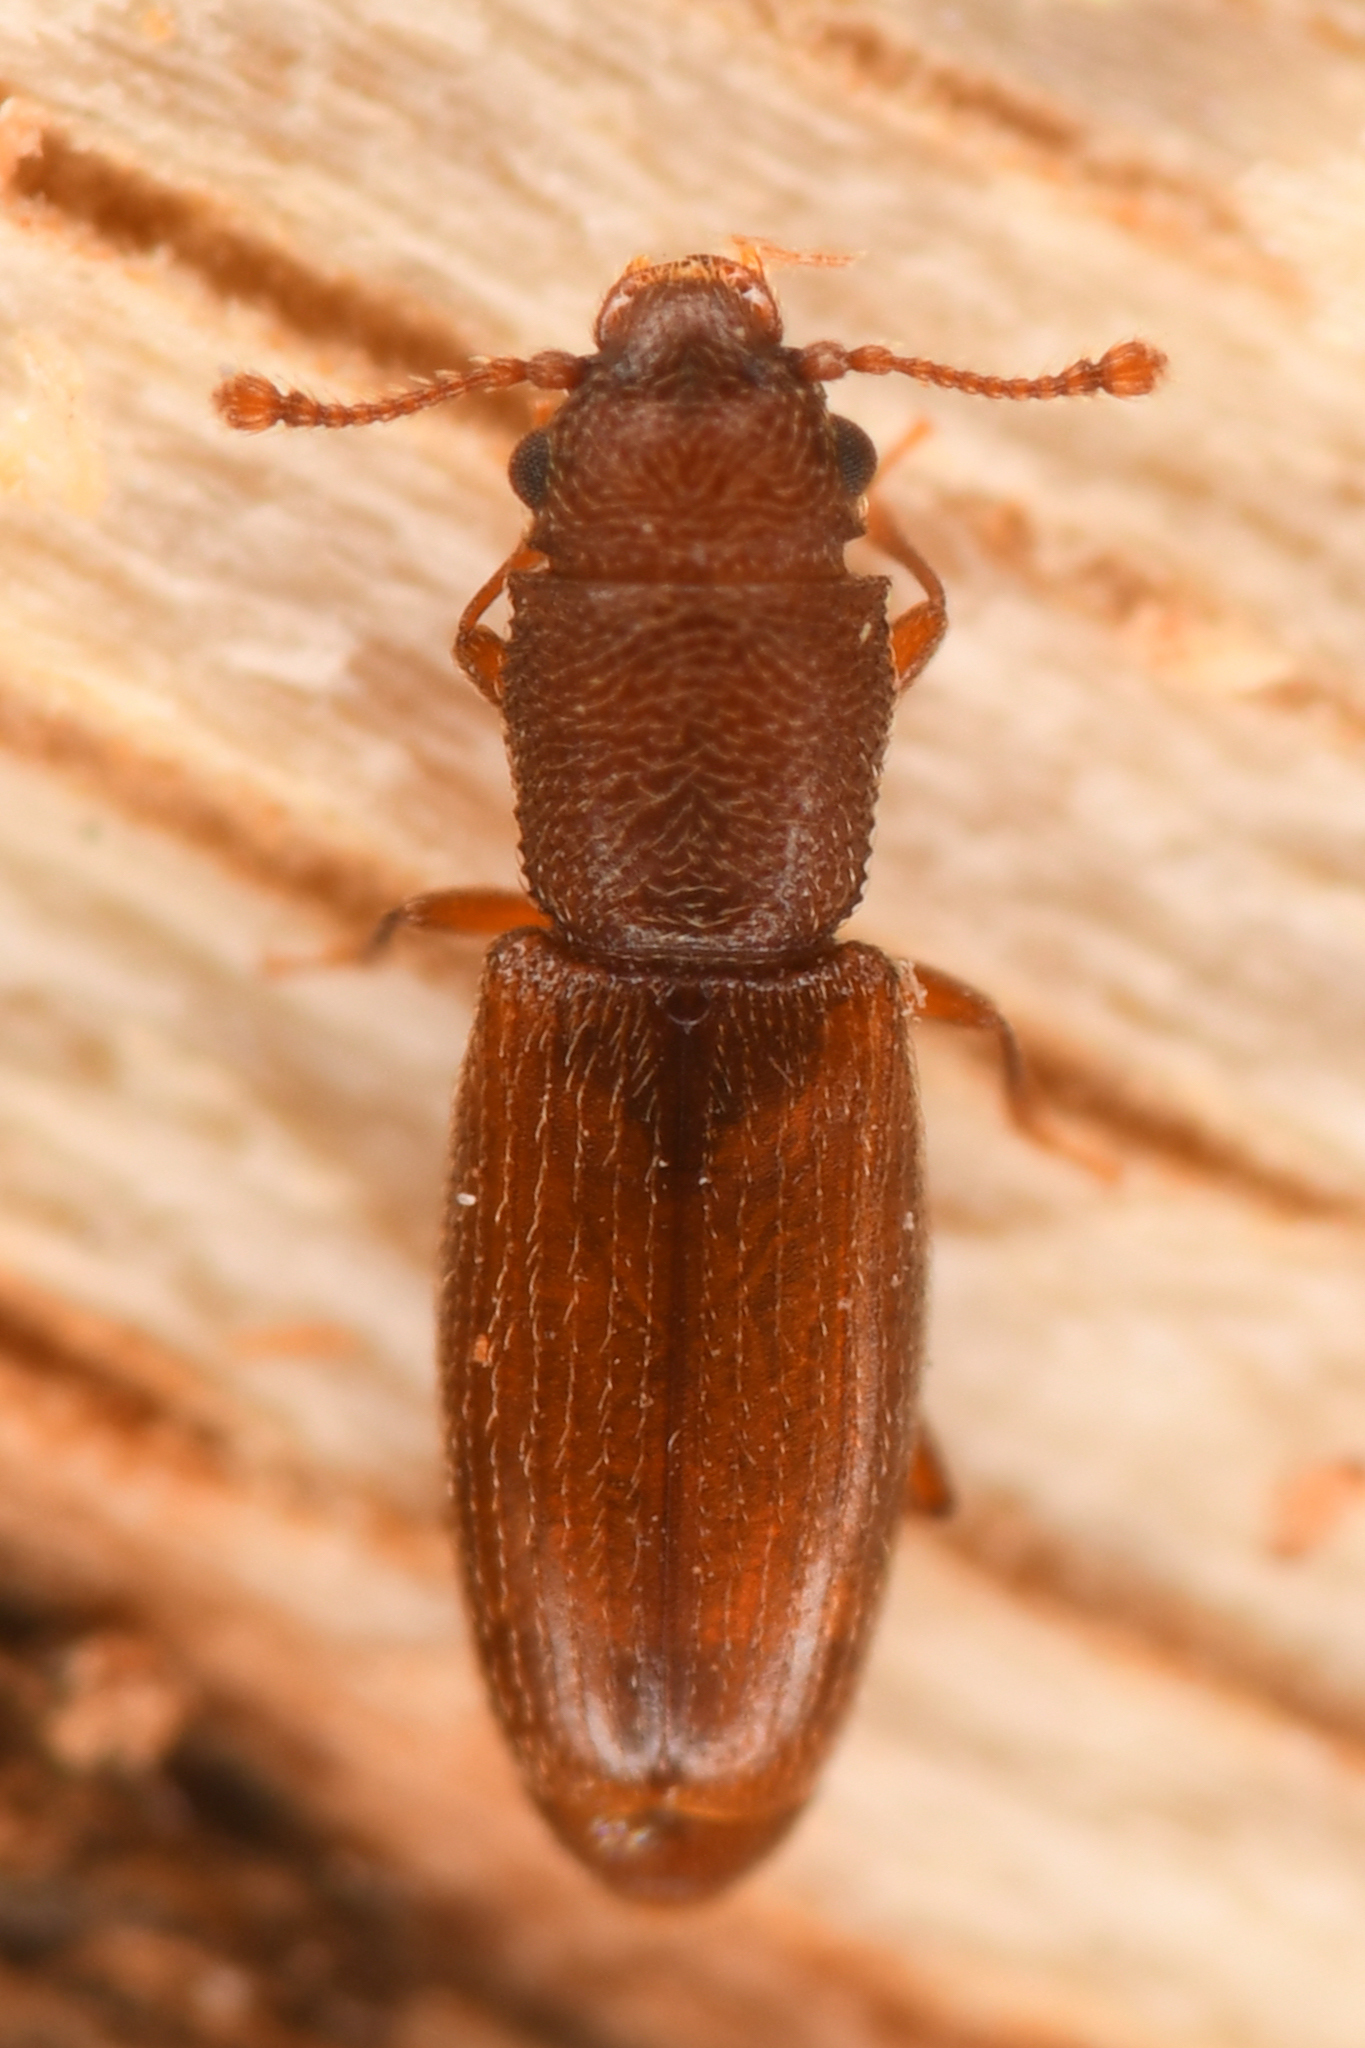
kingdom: Animalia
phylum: Arthropoda
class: Insecta
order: Coleoptera
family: Monotomidae
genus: Hesperobaenus
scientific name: Hesperobaenus abbreviatus
